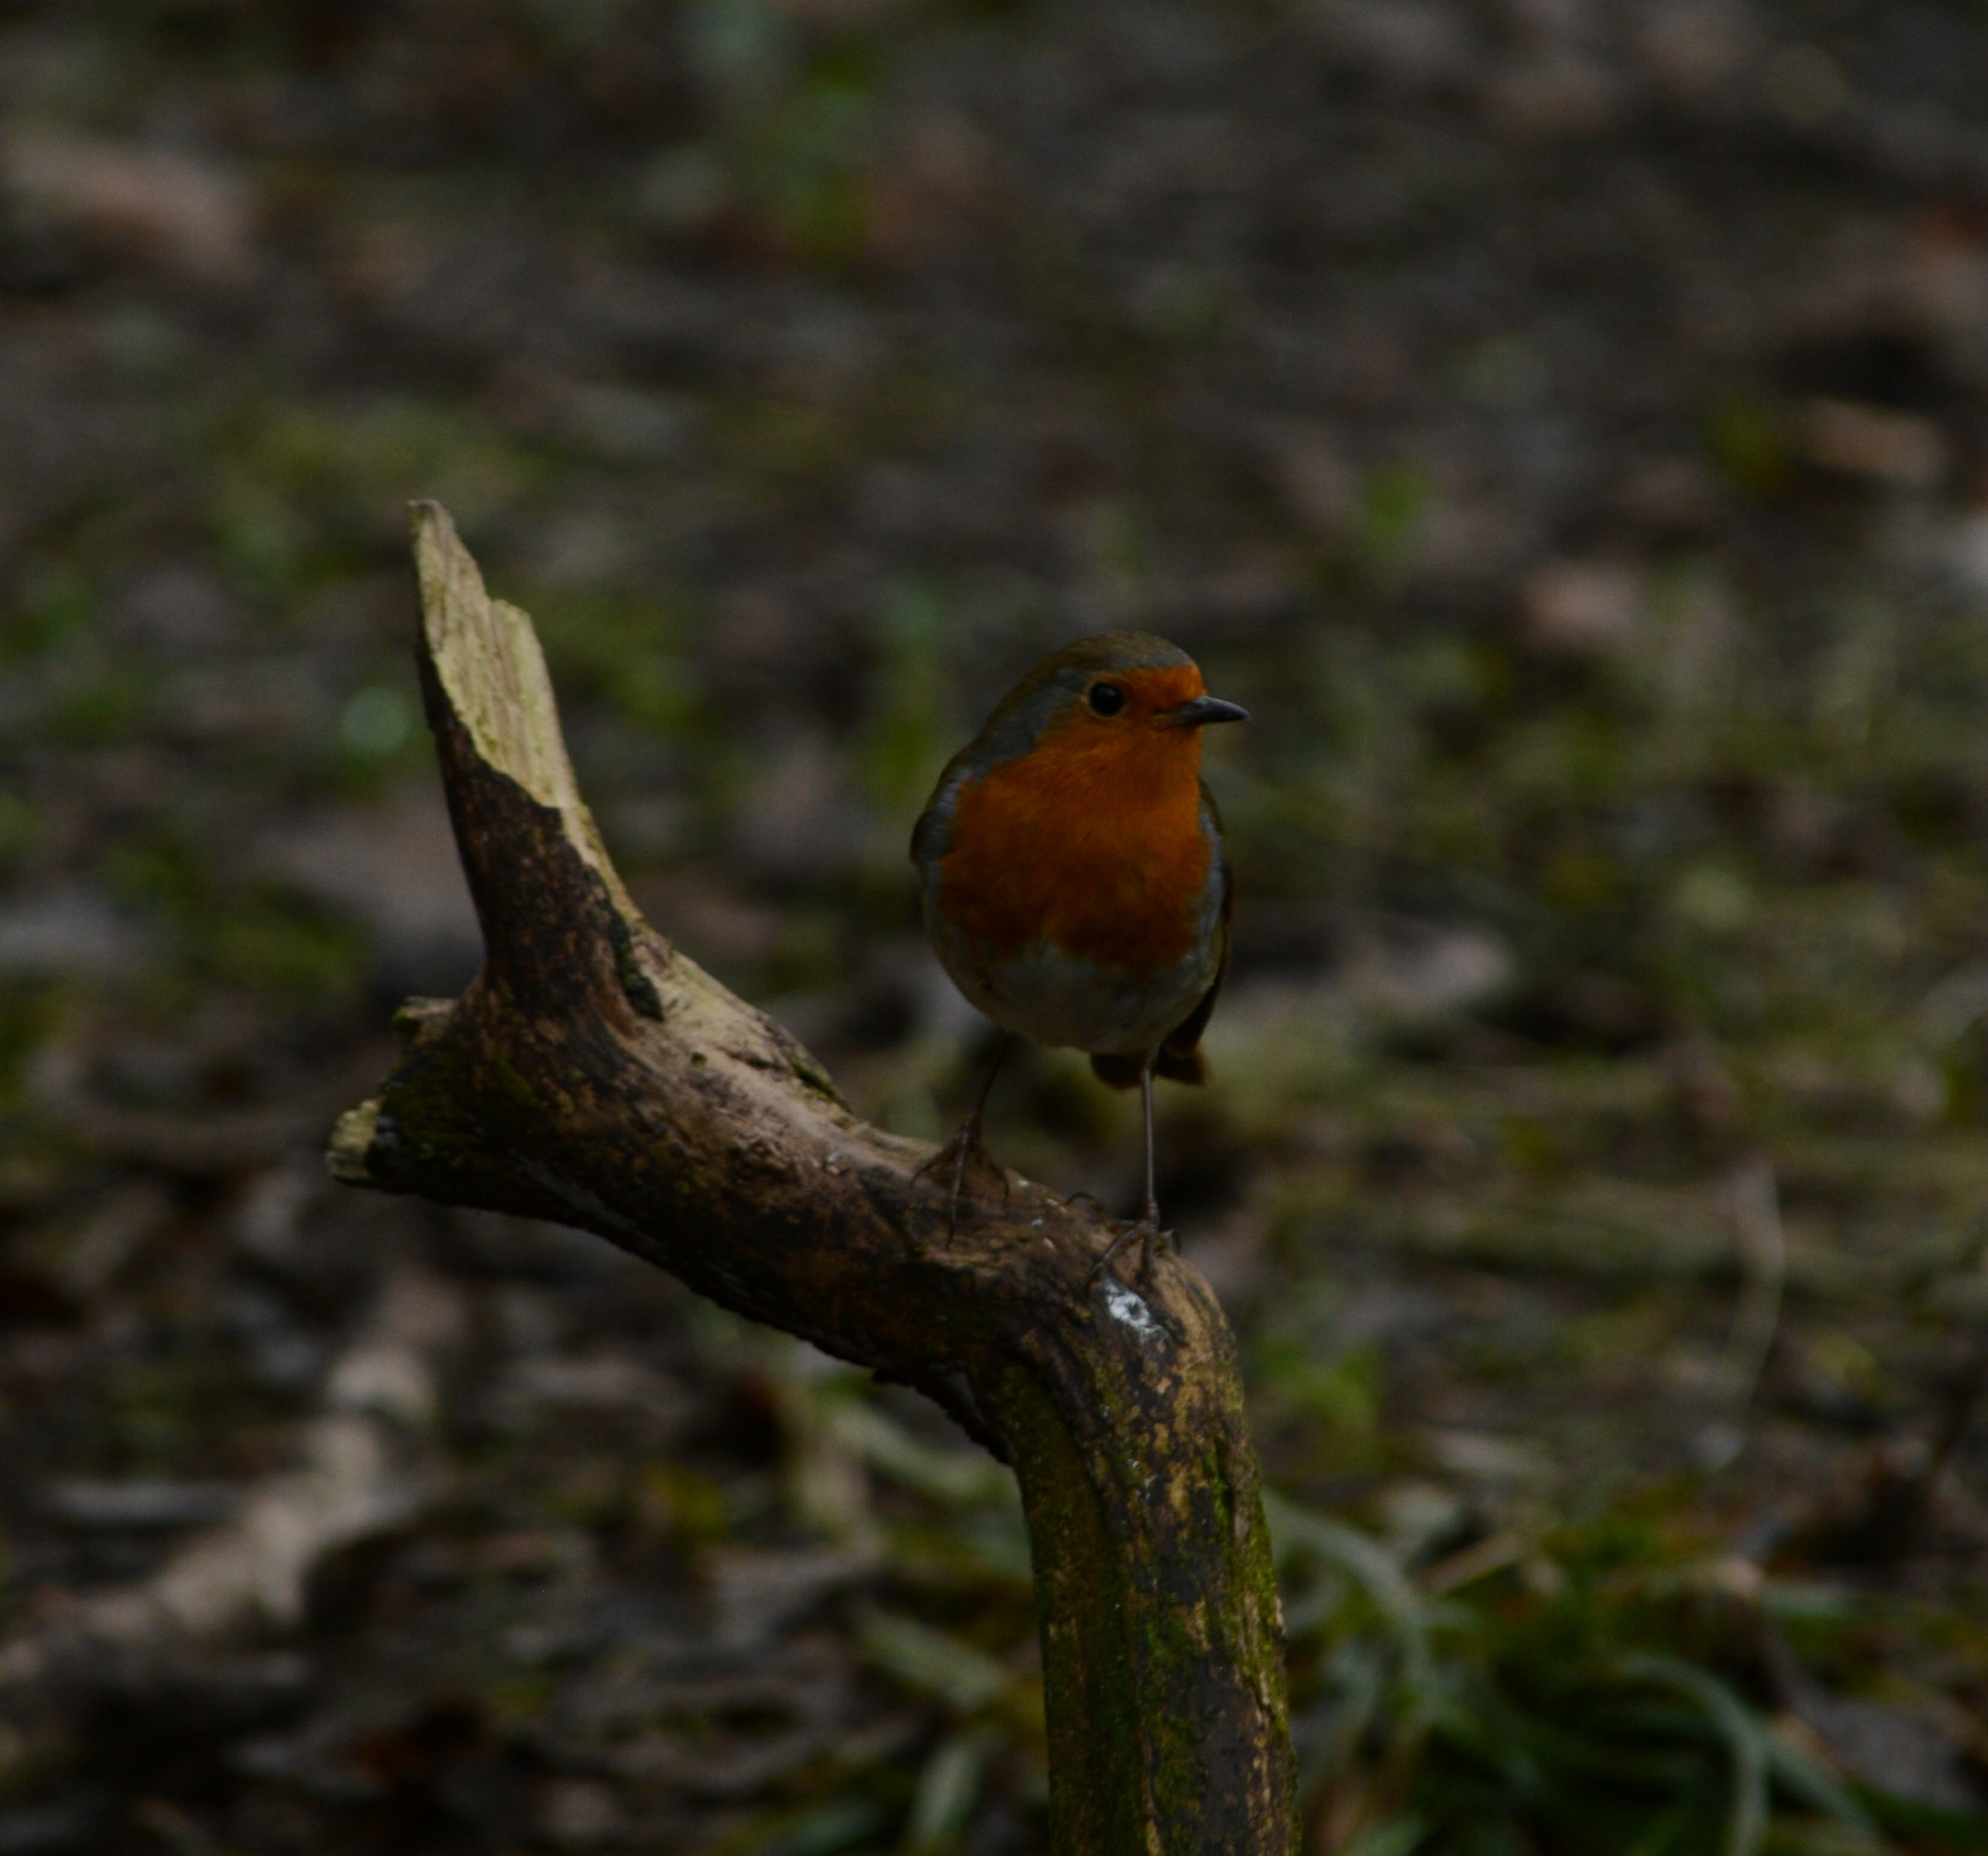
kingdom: Animalia
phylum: Chordata
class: Aves
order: Passeriformes
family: Muscicapidae
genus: Erithacus
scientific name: Erithacus rubecula
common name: European robin
